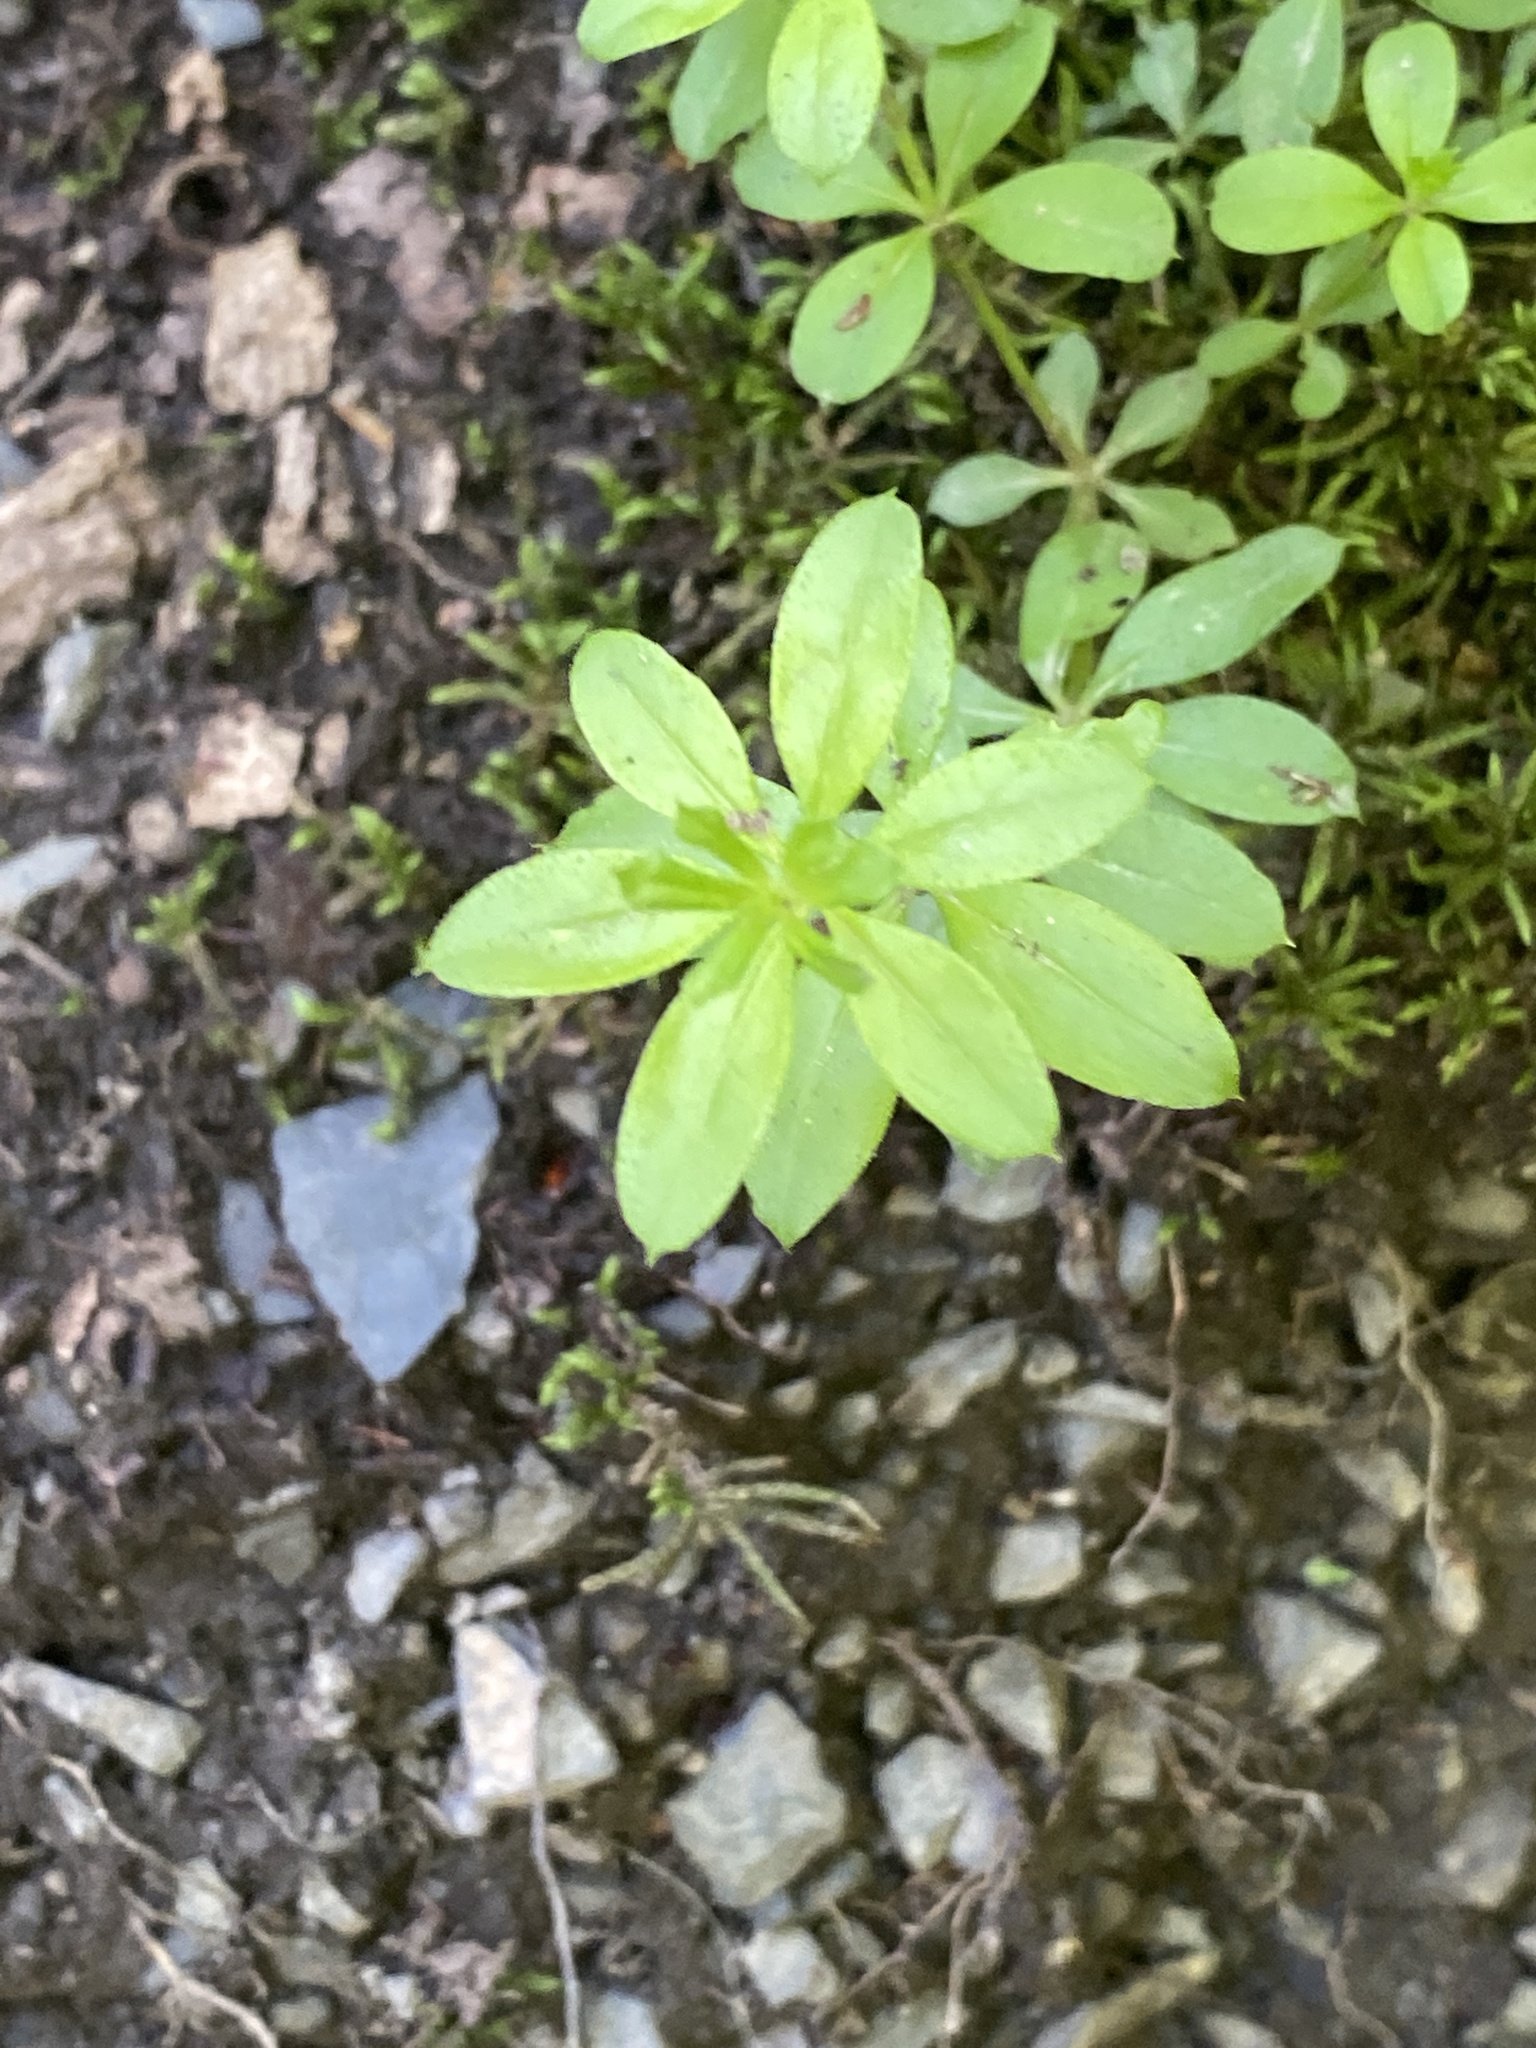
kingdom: Plantae
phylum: Tracheophyta
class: Magnoliopsida
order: Gentianales
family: Rubiaceae
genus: Galium
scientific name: Galium triflorum
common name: Fragrant bedstraw
